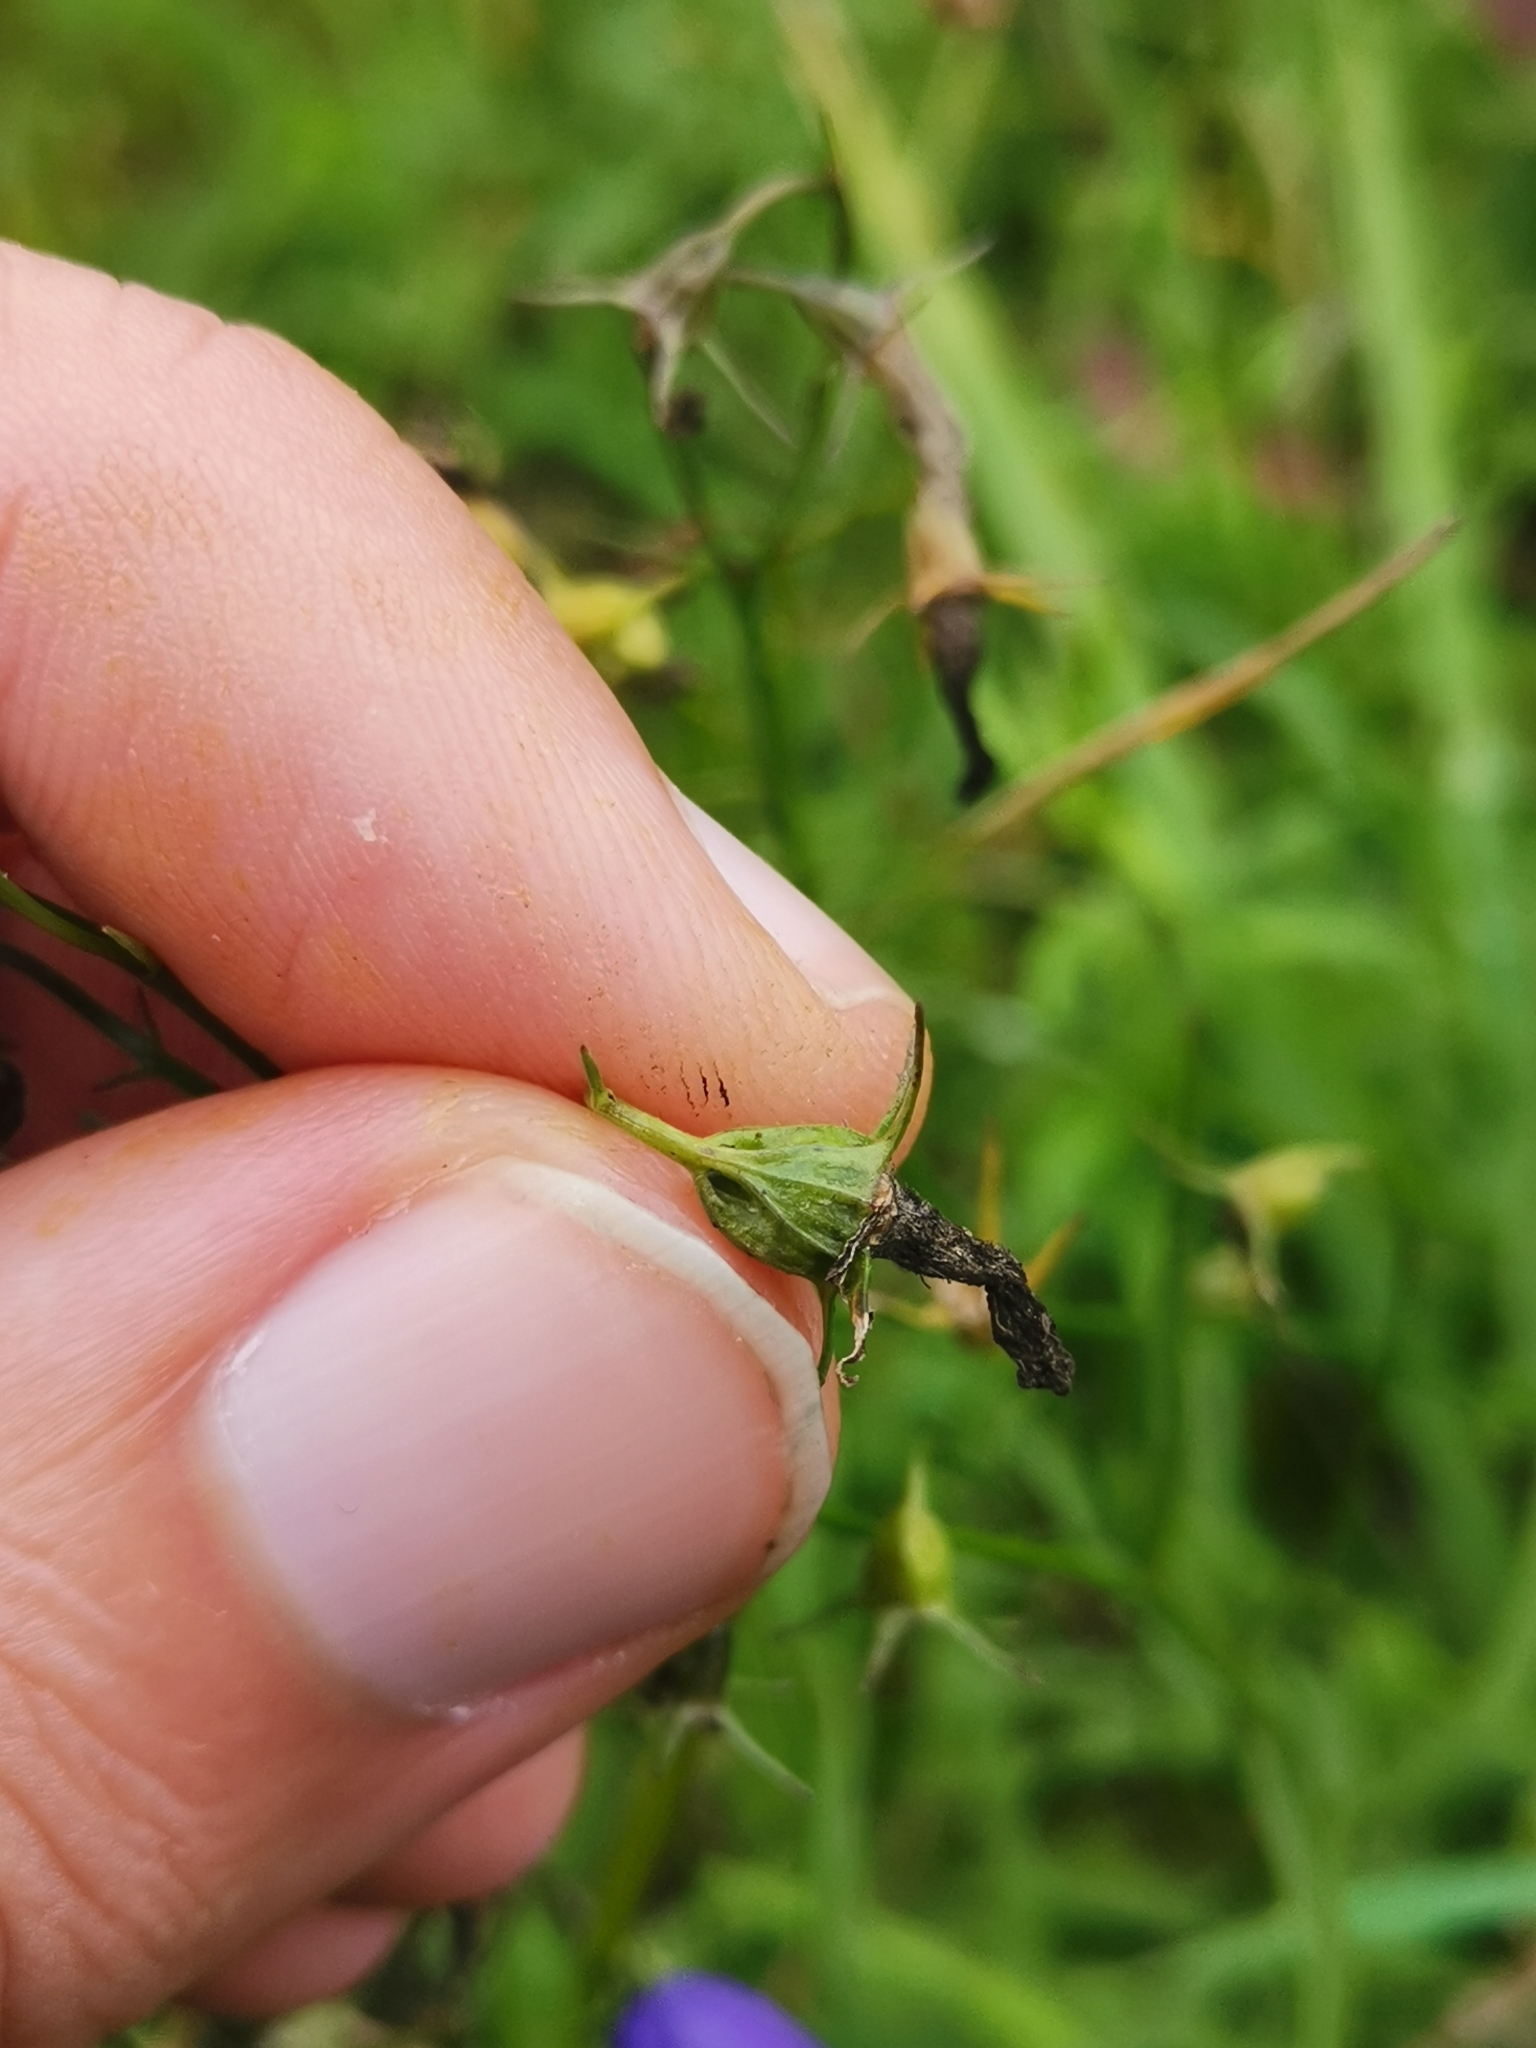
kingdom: Plantae
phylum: Tracheophyta
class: Magnoliopsida
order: Asterales
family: Campanulaceae
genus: Campanula
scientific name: Campanula rotundifolia
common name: Harebell
